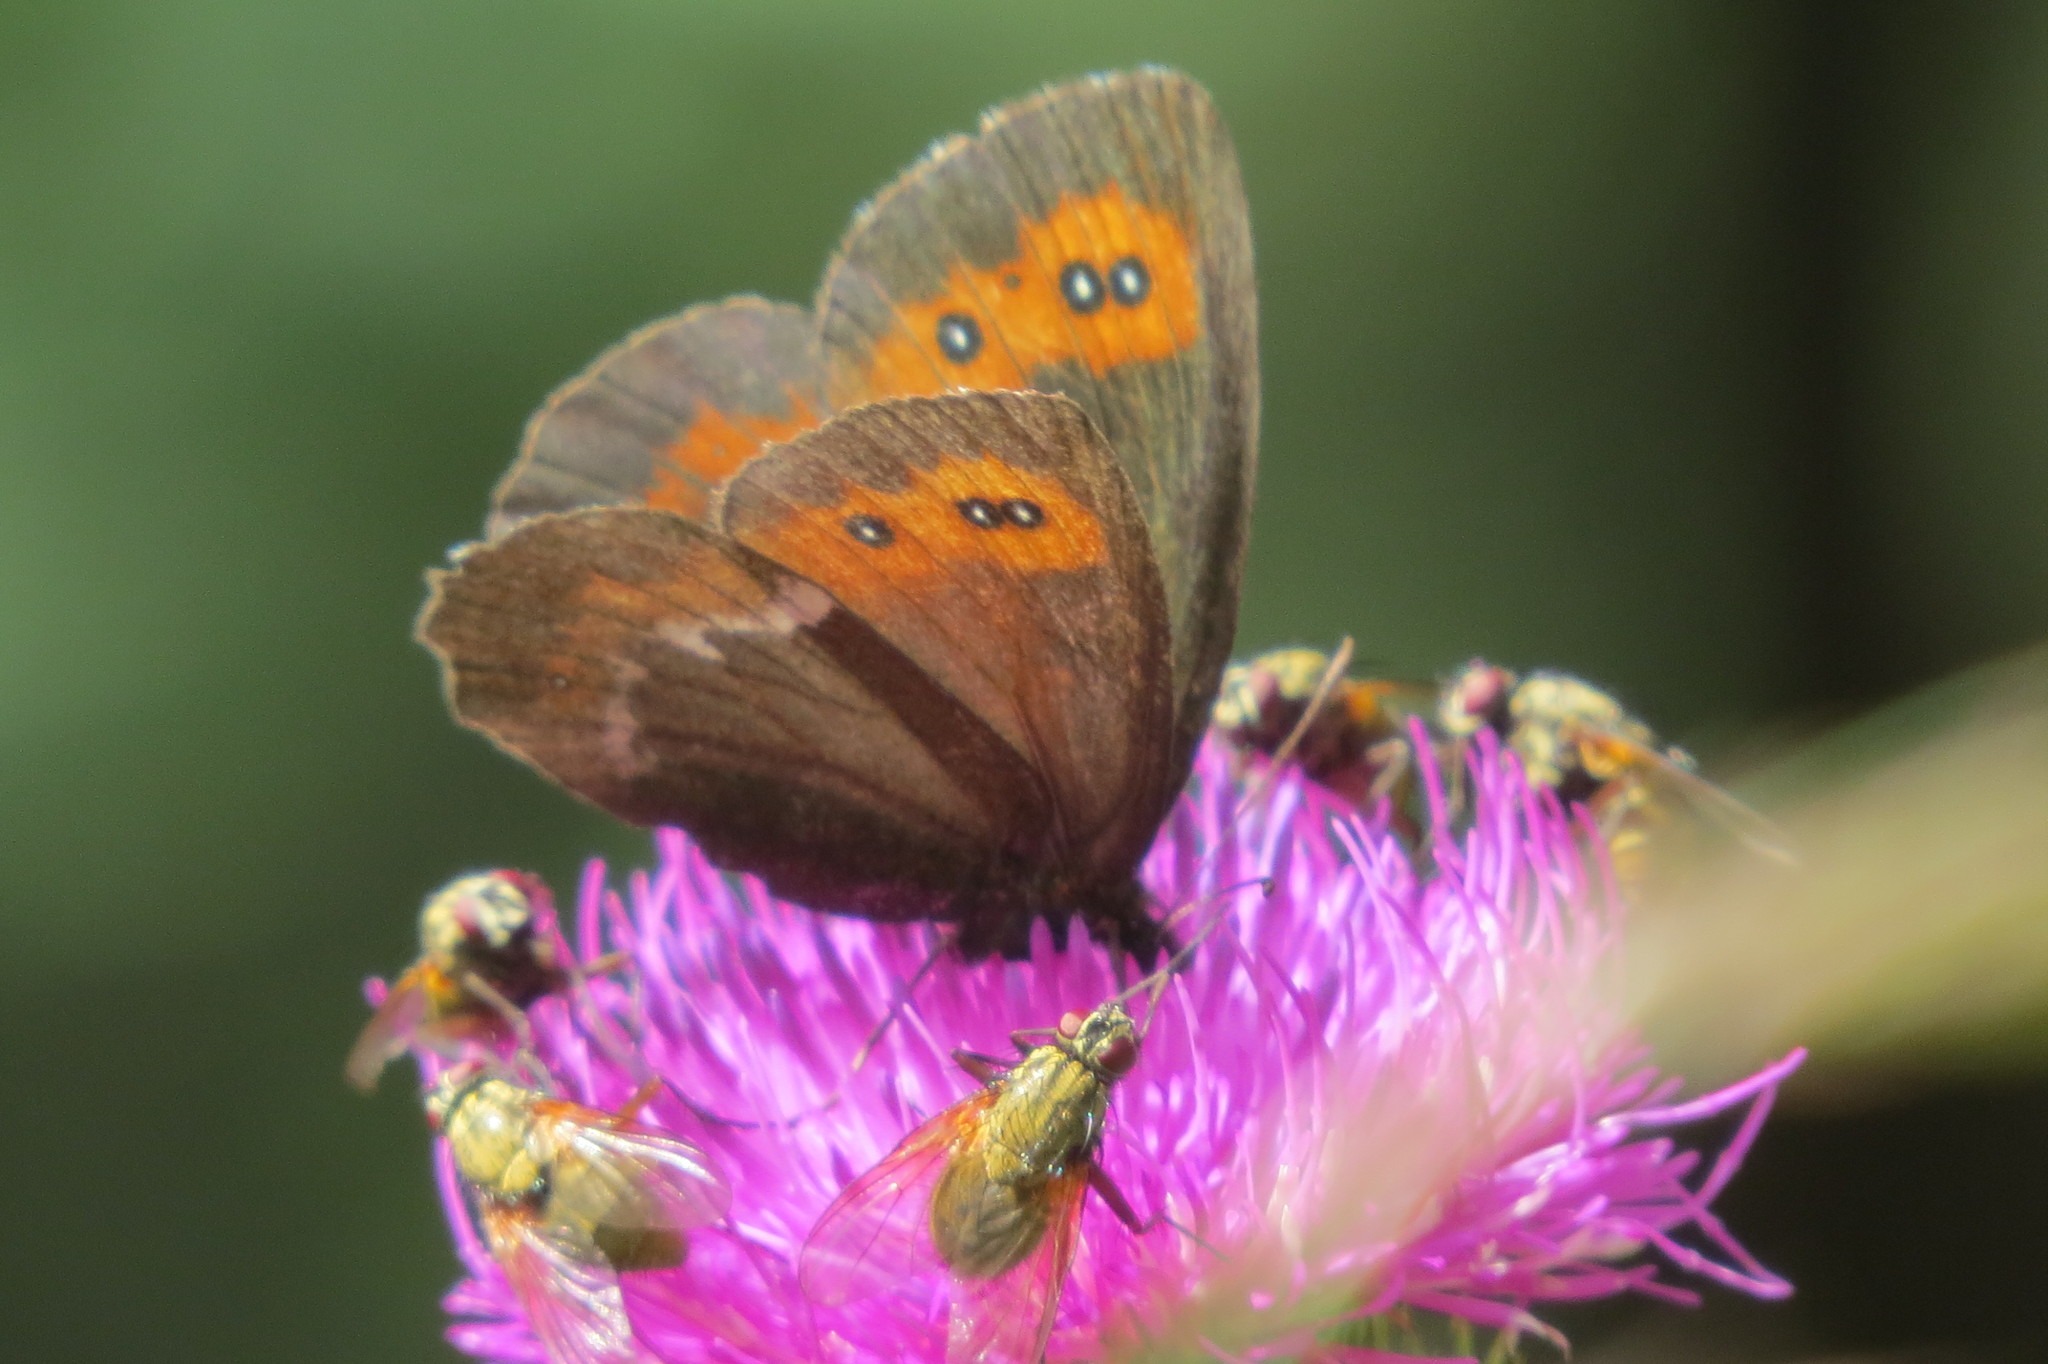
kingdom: Animalia
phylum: Arthropoda
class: Insecta
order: Lepidoptera
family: Nymphalidae
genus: Erebia
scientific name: Erebia euryale
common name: Large ringlet
